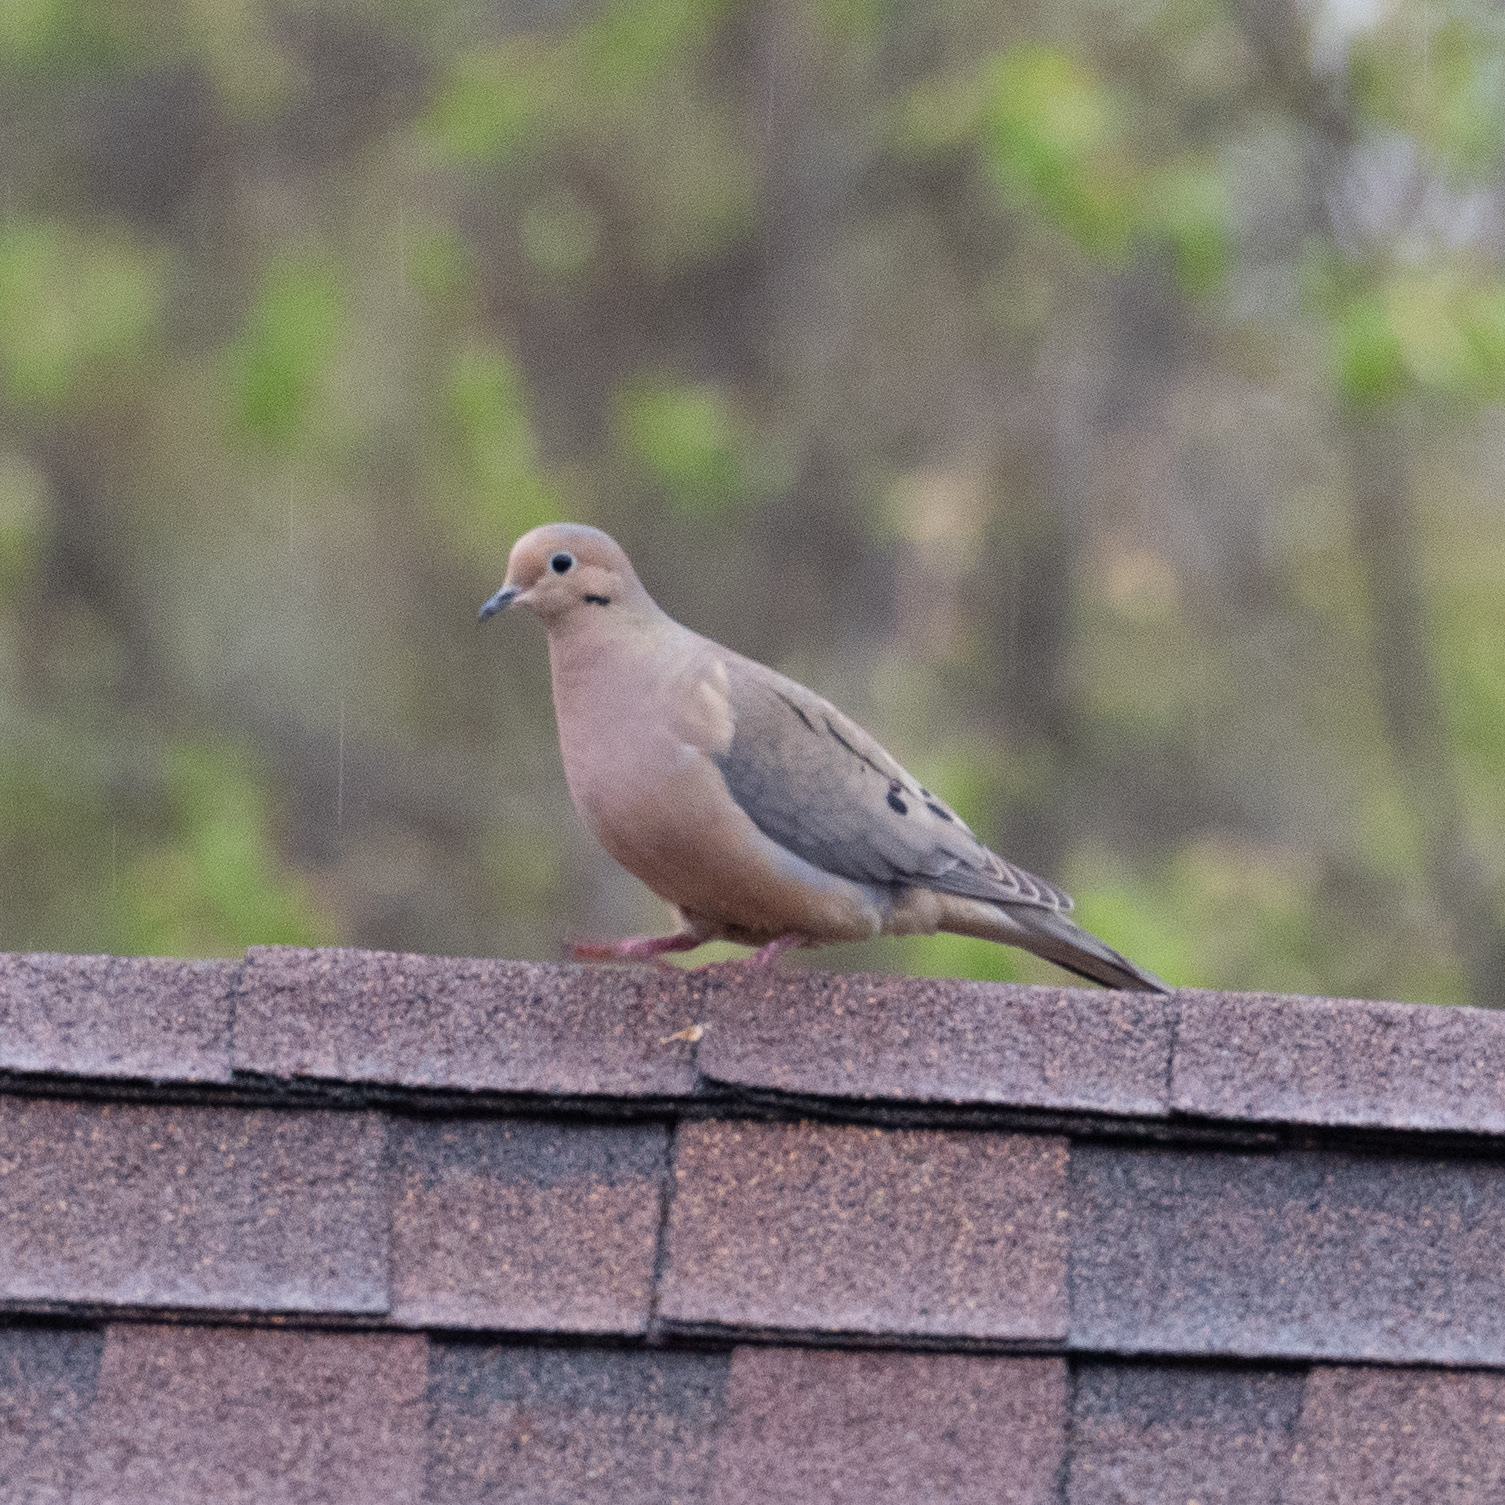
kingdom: Animalia
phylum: Chordata
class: Aves
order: Columbiformes
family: Columbidae
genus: Zenaida
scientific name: Zenaida macroura
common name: Mourning dove
